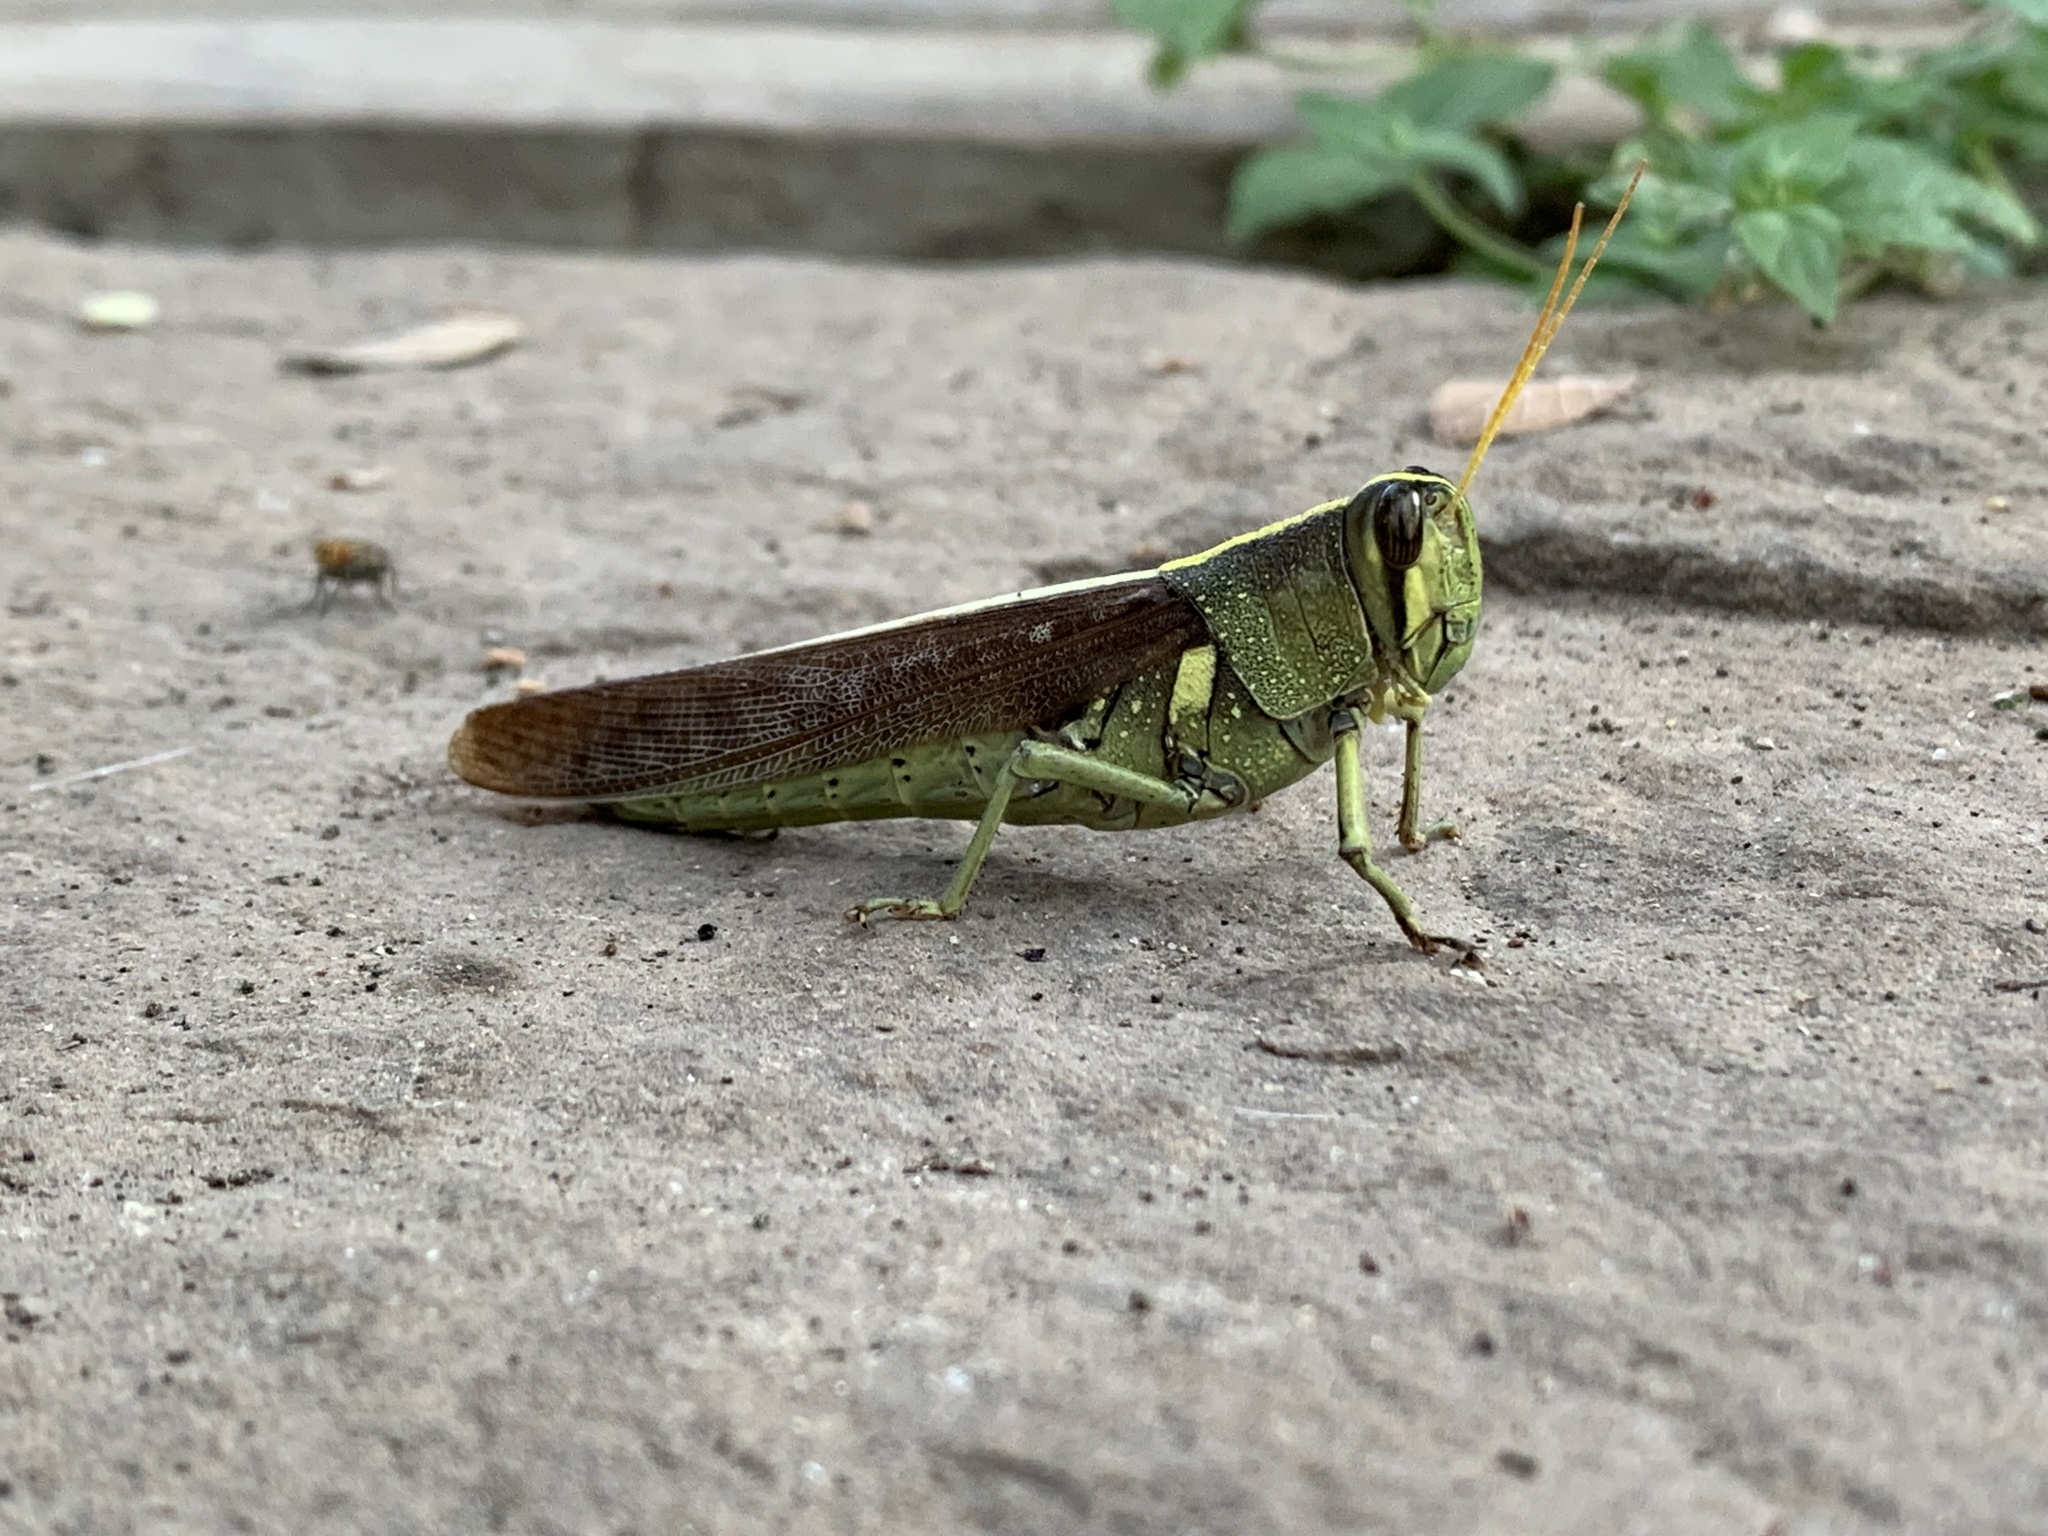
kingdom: Animalia
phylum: Arthropoda
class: Insecta
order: Orthoptera
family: Acrididae
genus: Schistocerca
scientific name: Schistocerca obscura
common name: Obscure bird grasshopper
